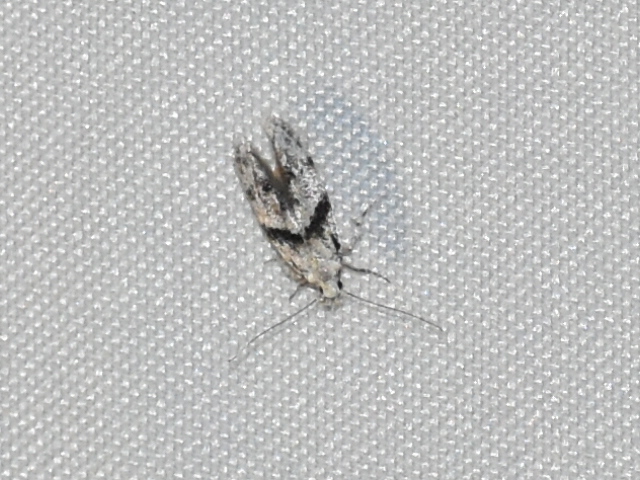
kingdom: Animalia
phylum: Arthropoda
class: Insecta
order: Lepidoptera
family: Gelechiidae
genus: Arogalea
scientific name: Arogalea cristifasciella
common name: White stripe-backed moth
